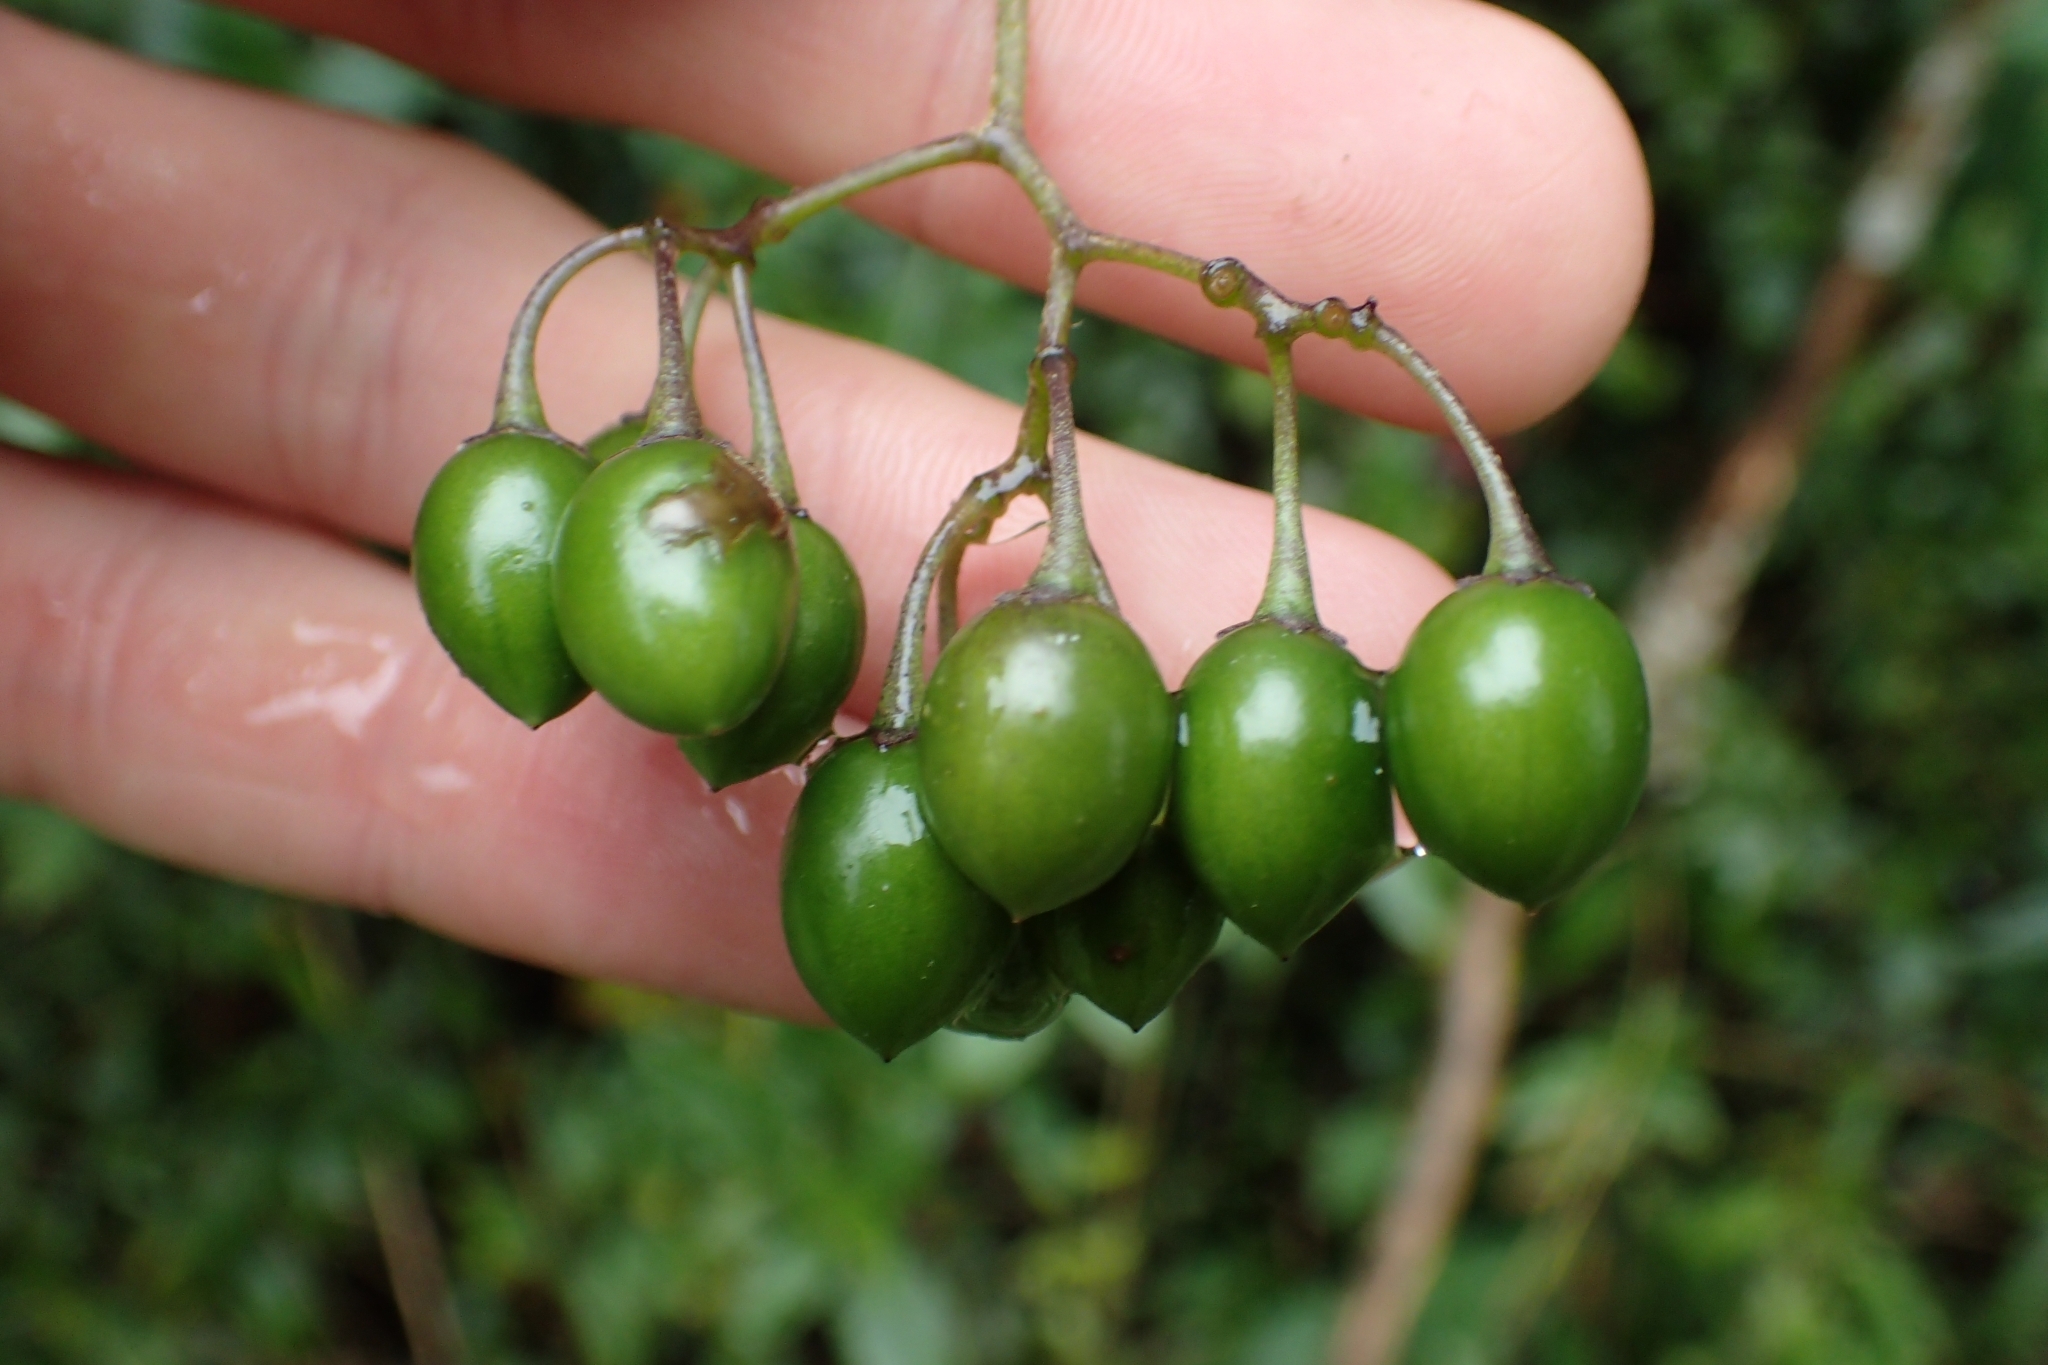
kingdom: Plantae
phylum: Tracheophyta
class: Magnoliopsida
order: Solanales
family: Solanaceae
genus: Solanum
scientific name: Solanum dulcamara
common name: Climbing nightshade
